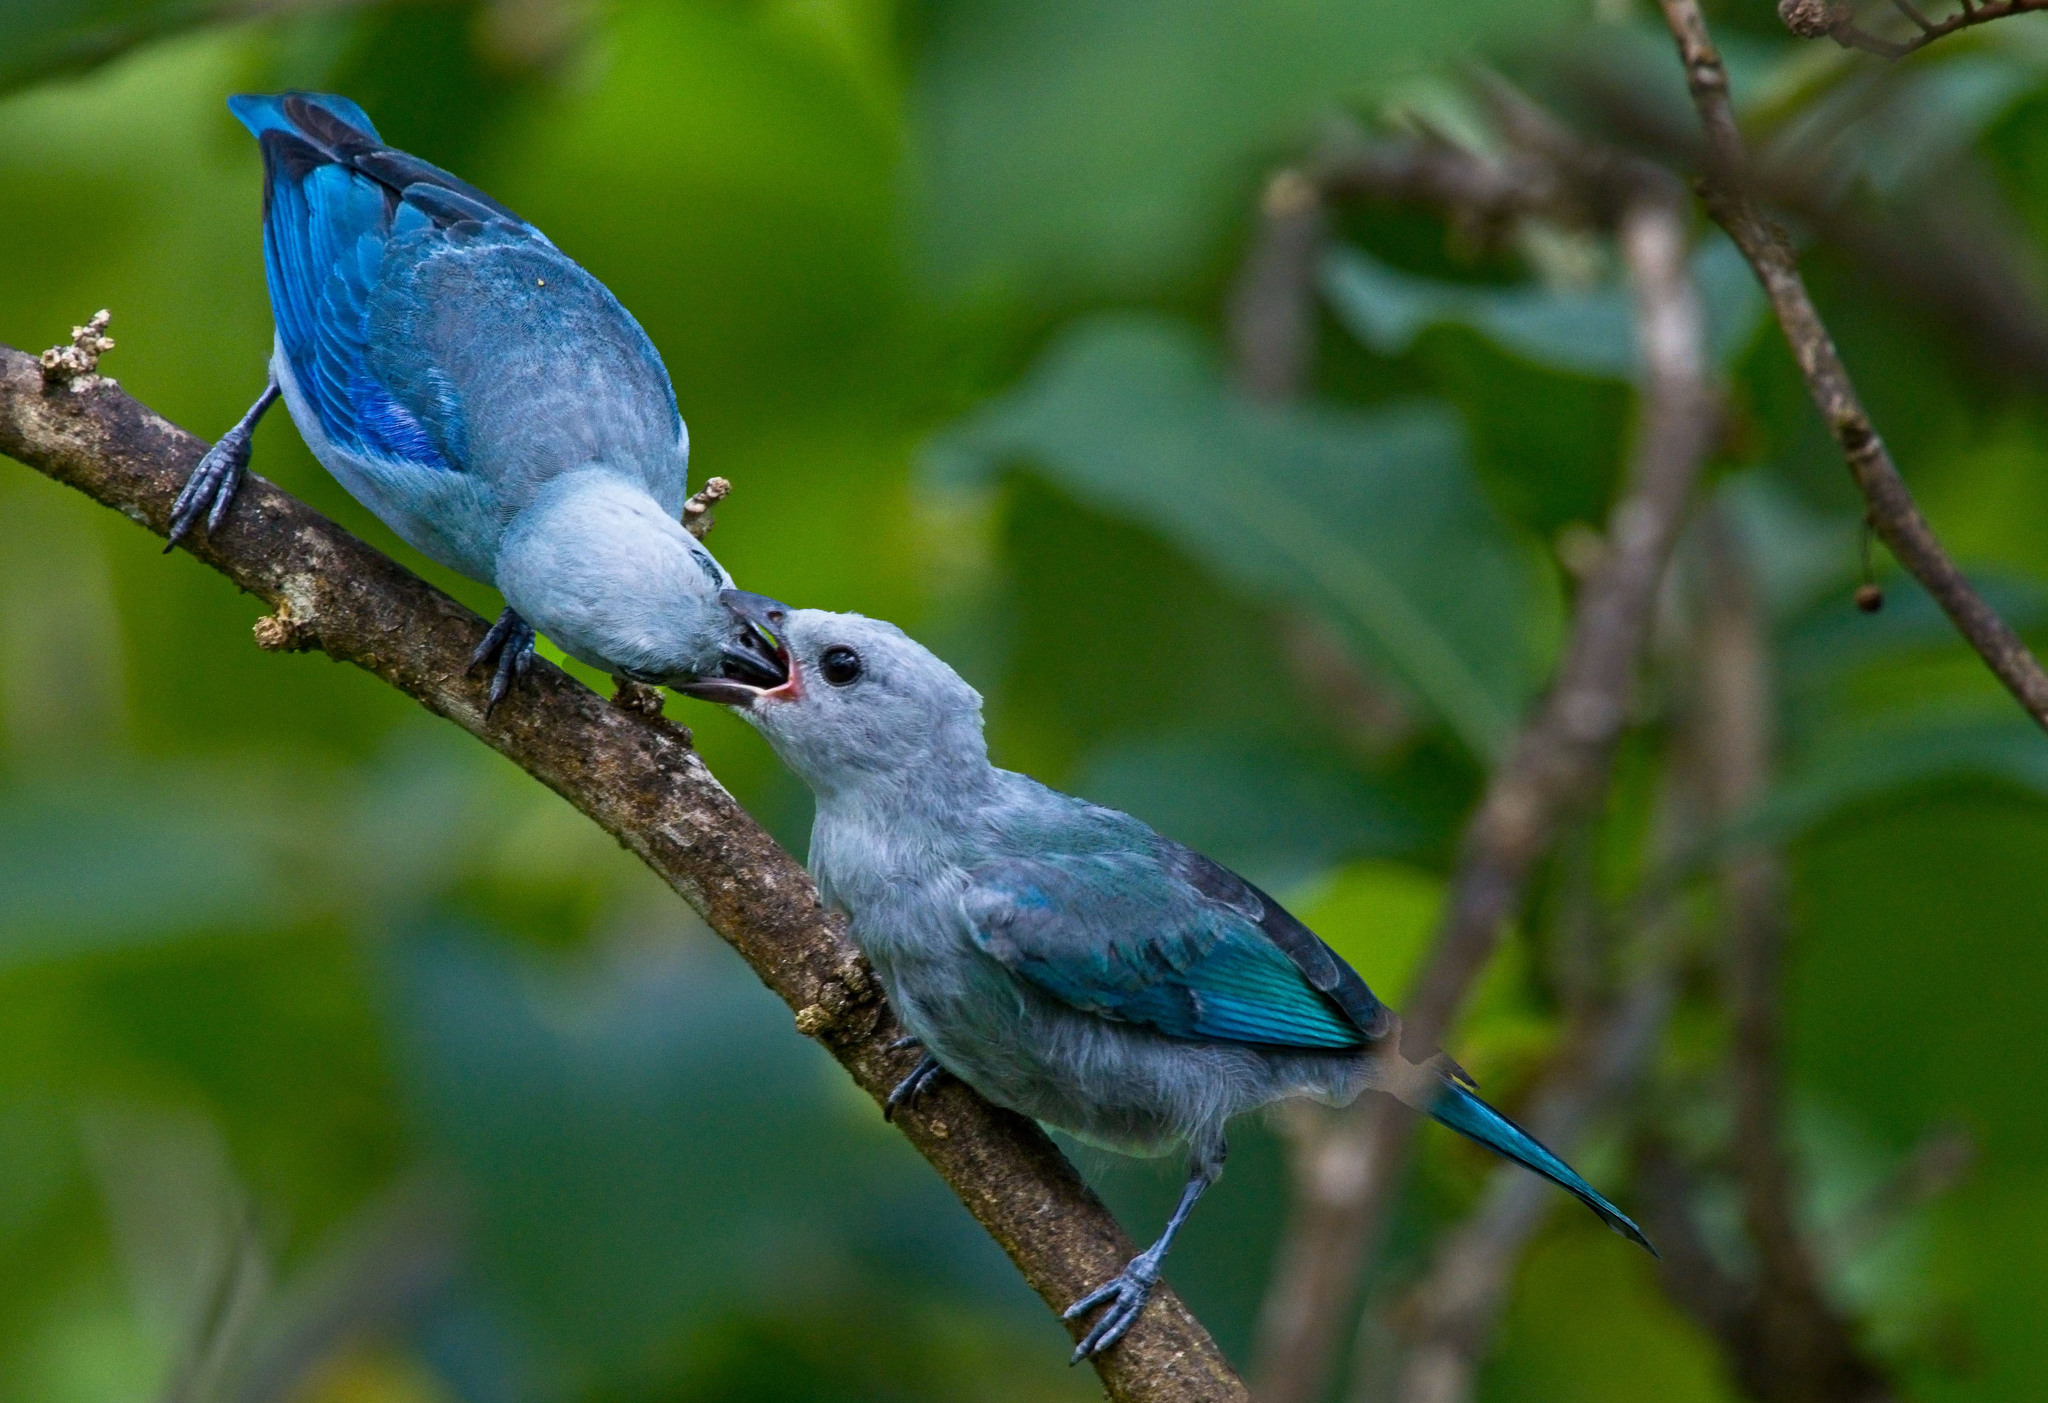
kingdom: Animalia
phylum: Chordata
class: Aves
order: Passeriformes
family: Thraupidae
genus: Thraupis
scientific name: Thraupis episcopus
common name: Blue-grey tanager
